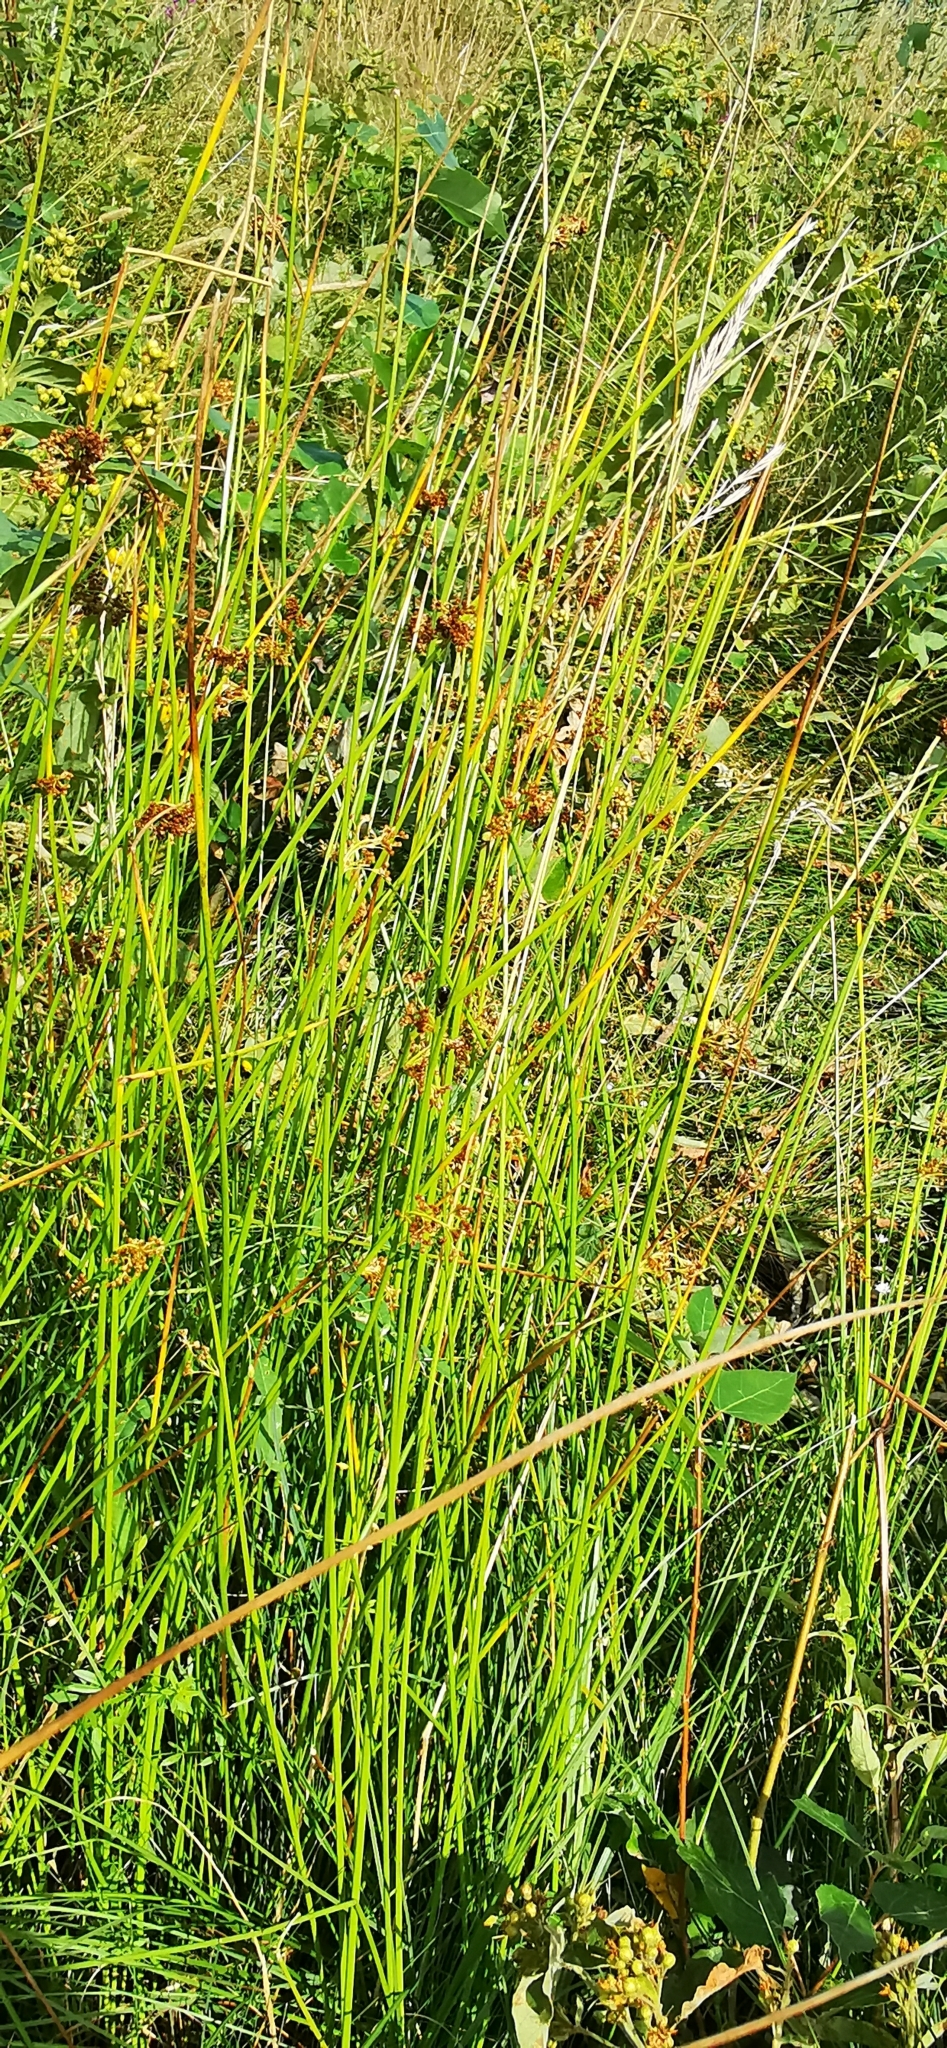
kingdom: Plantae
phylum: Tracheophyta
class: Liliopsida
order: Poales
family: Juncaceae
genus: Juncus
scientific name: Juncus effusus
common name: Soft rush
